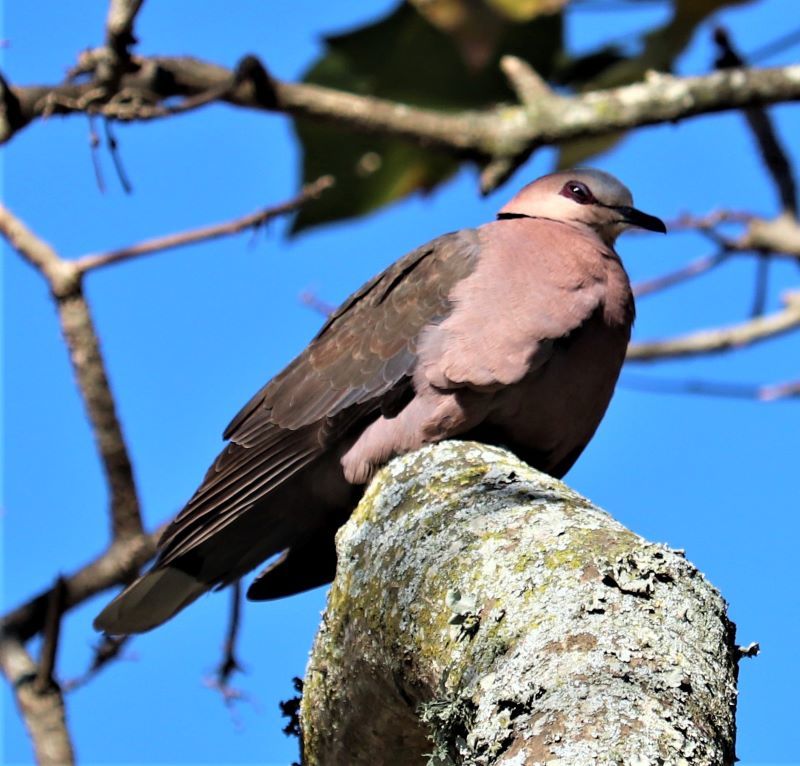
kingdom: Animalia
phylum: Chordata
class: Aves
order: Columbiformes
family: Columbidae
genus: Streptopelia
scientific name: Streptopelia semitorquata
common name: Red-eyed dove
